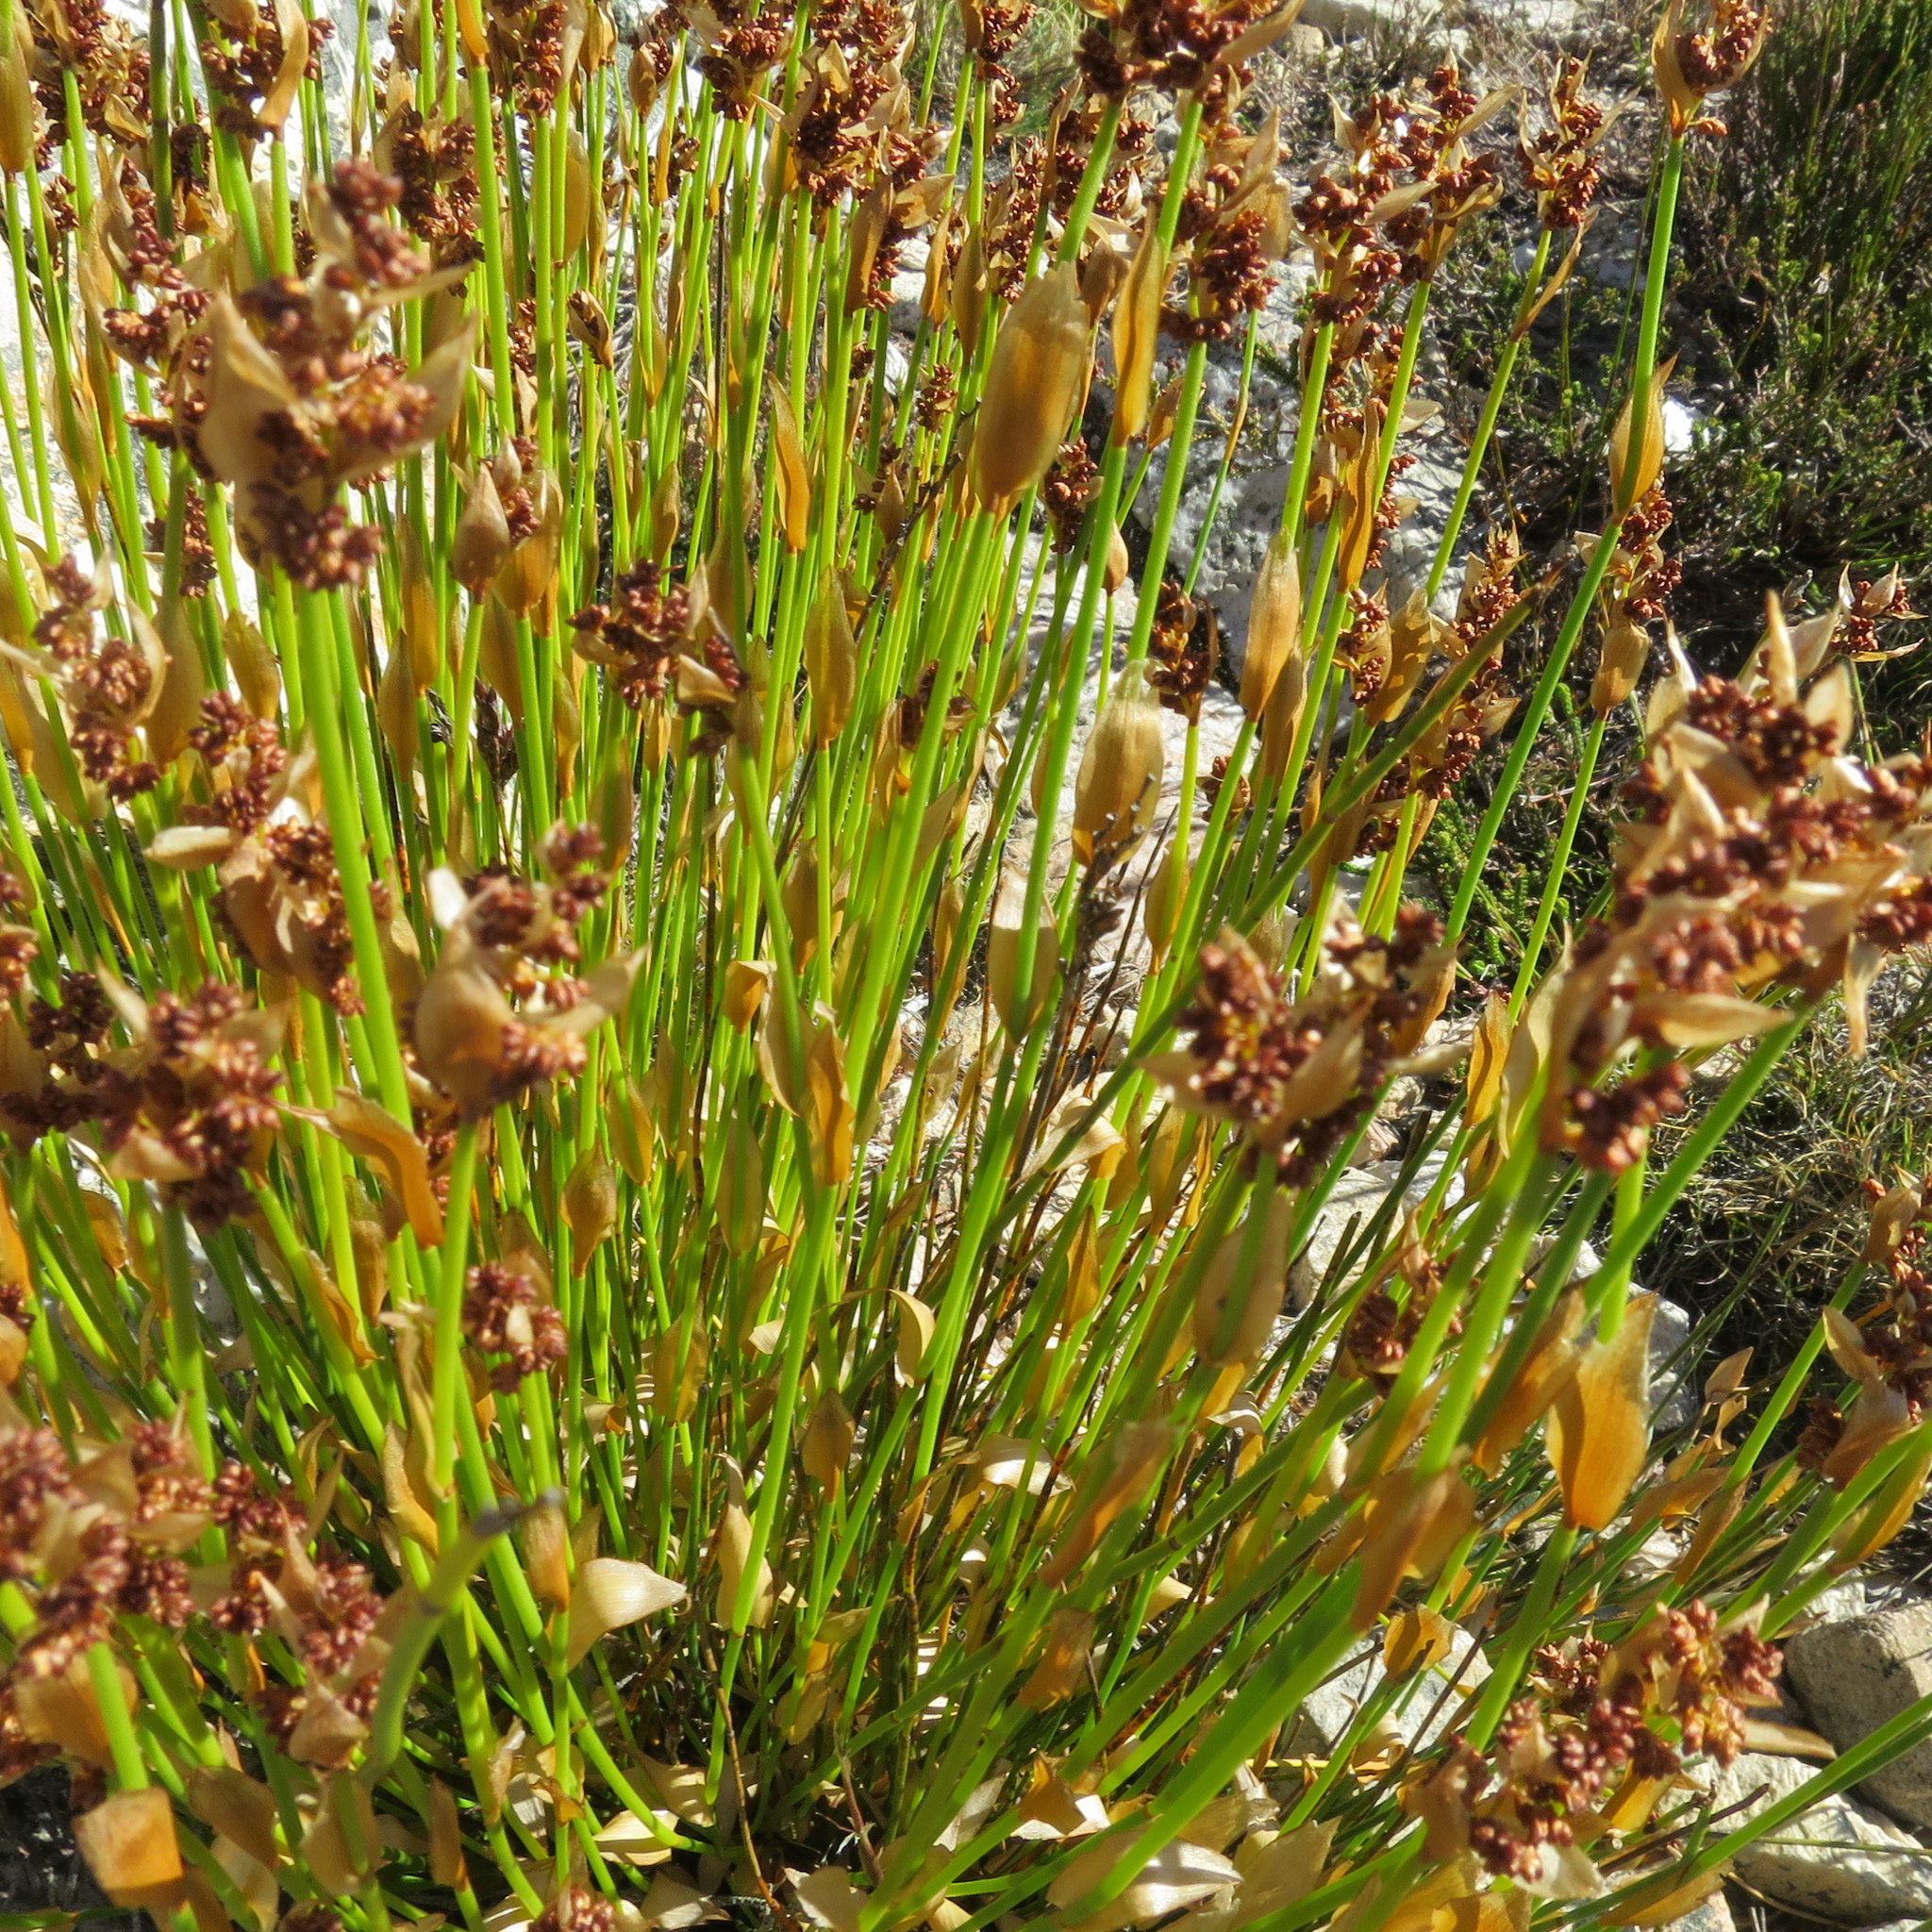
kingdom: Plantae
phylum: Tracheophyta
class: Liliopsida
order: Poales
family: Restionaceae
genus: Elegia
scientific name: Elegia altigena
